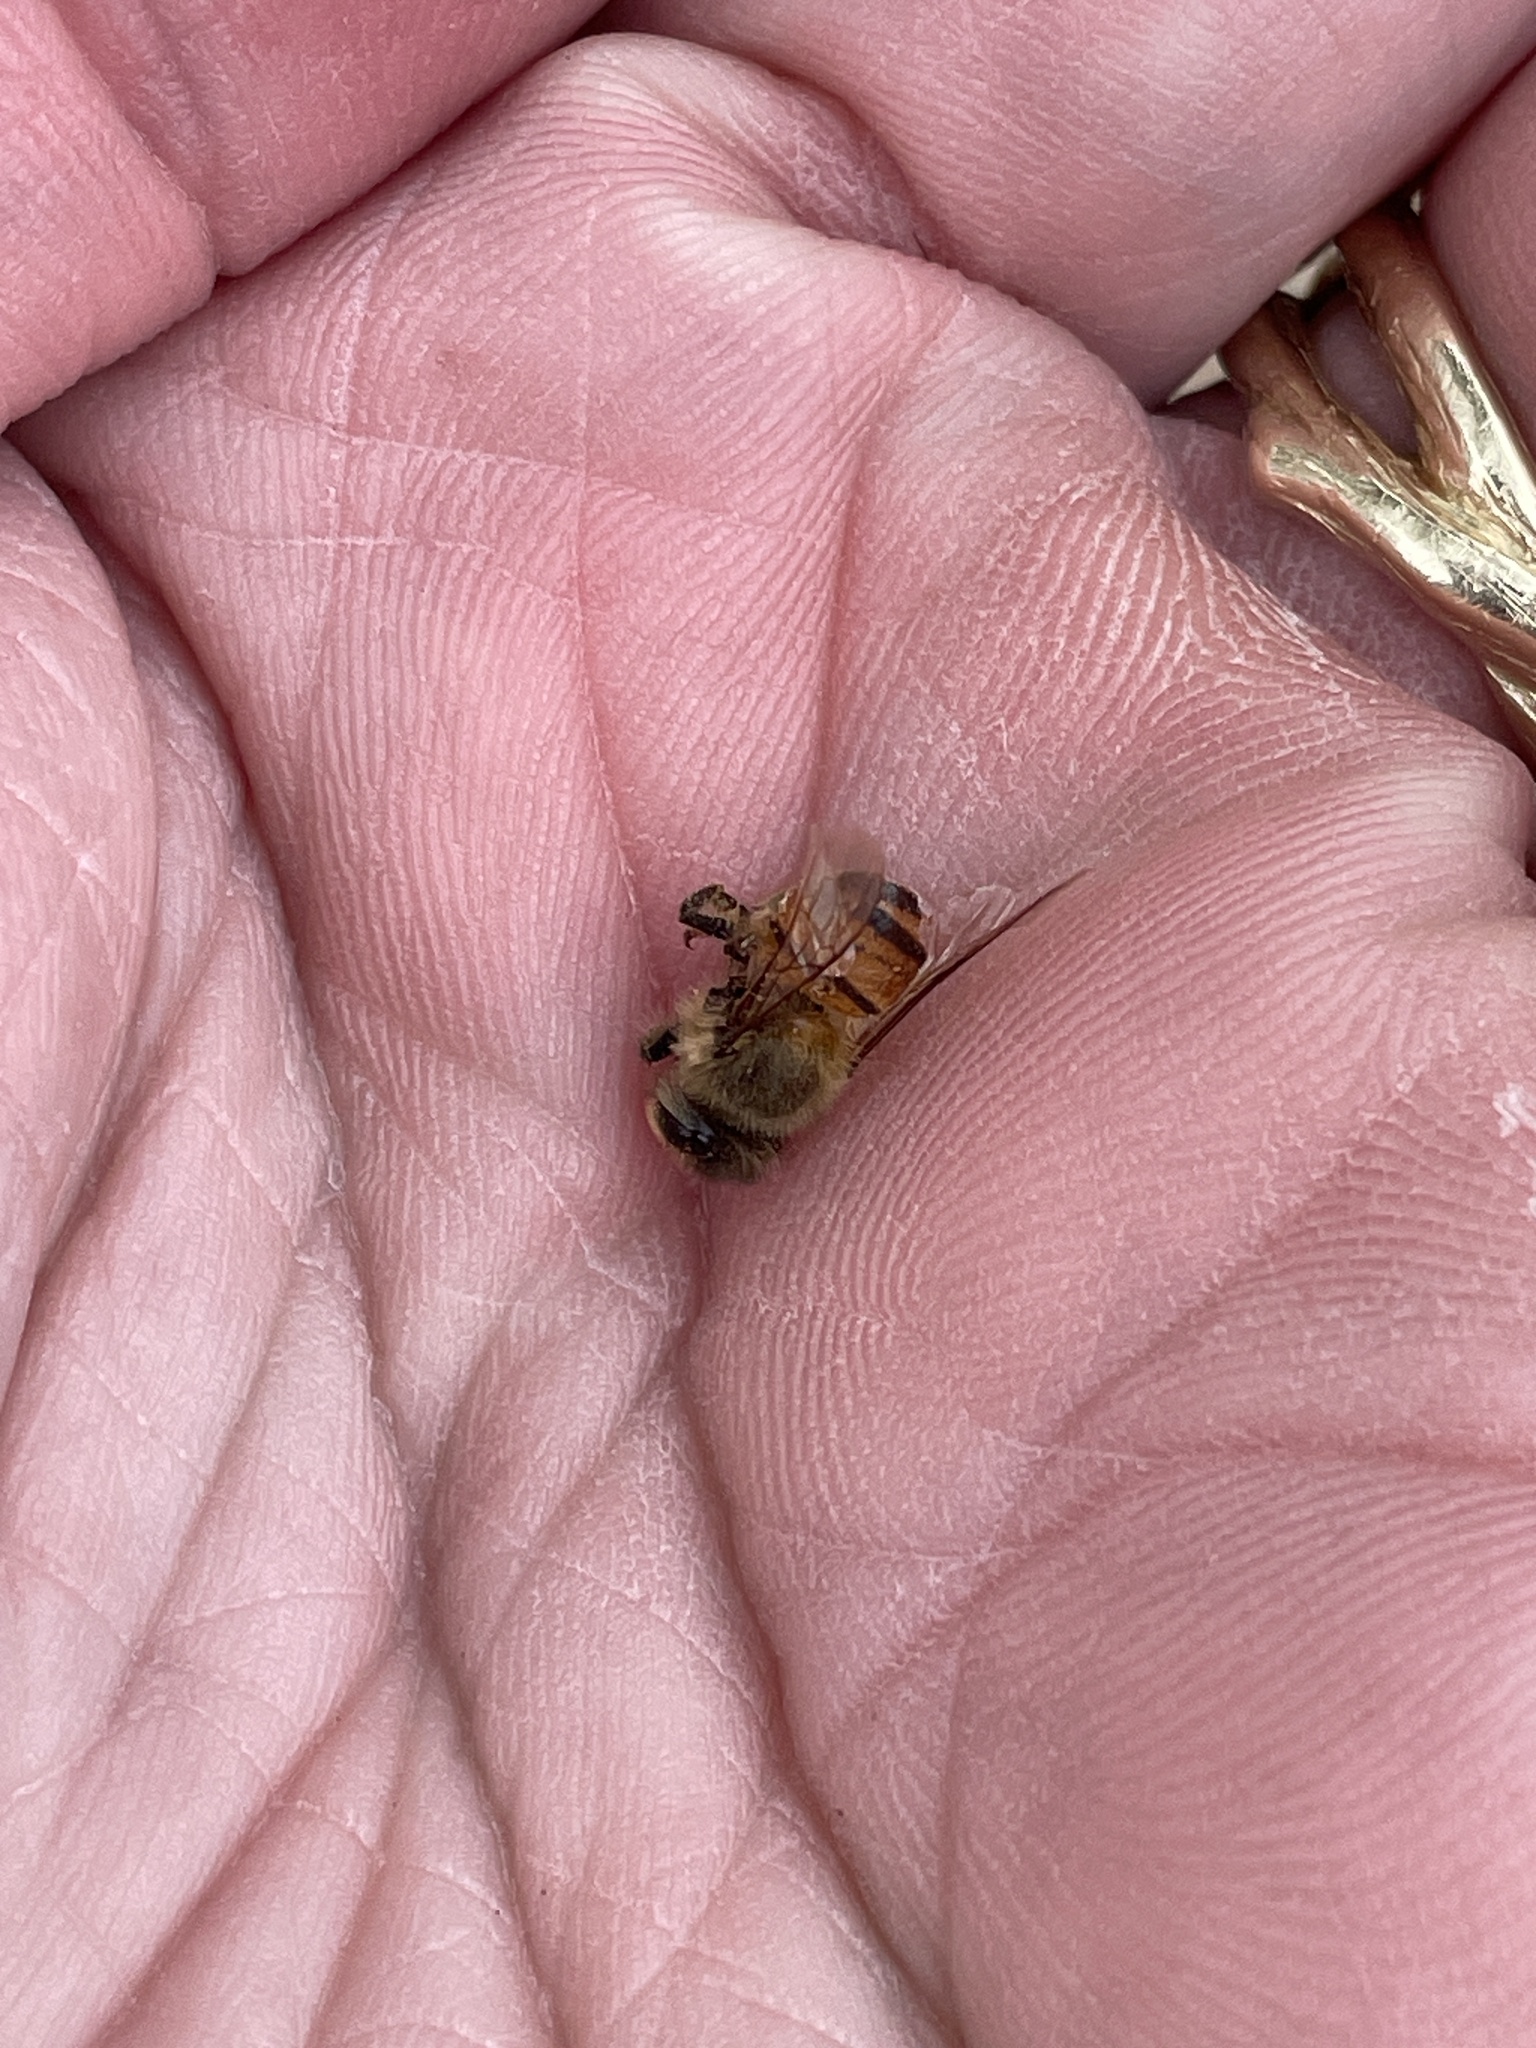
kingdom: Animalia
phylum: Arthropoda
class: Insecta
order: Hymenoptera
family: Apidae
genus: Apis
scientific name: Apis mellifera
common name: Honey bee
